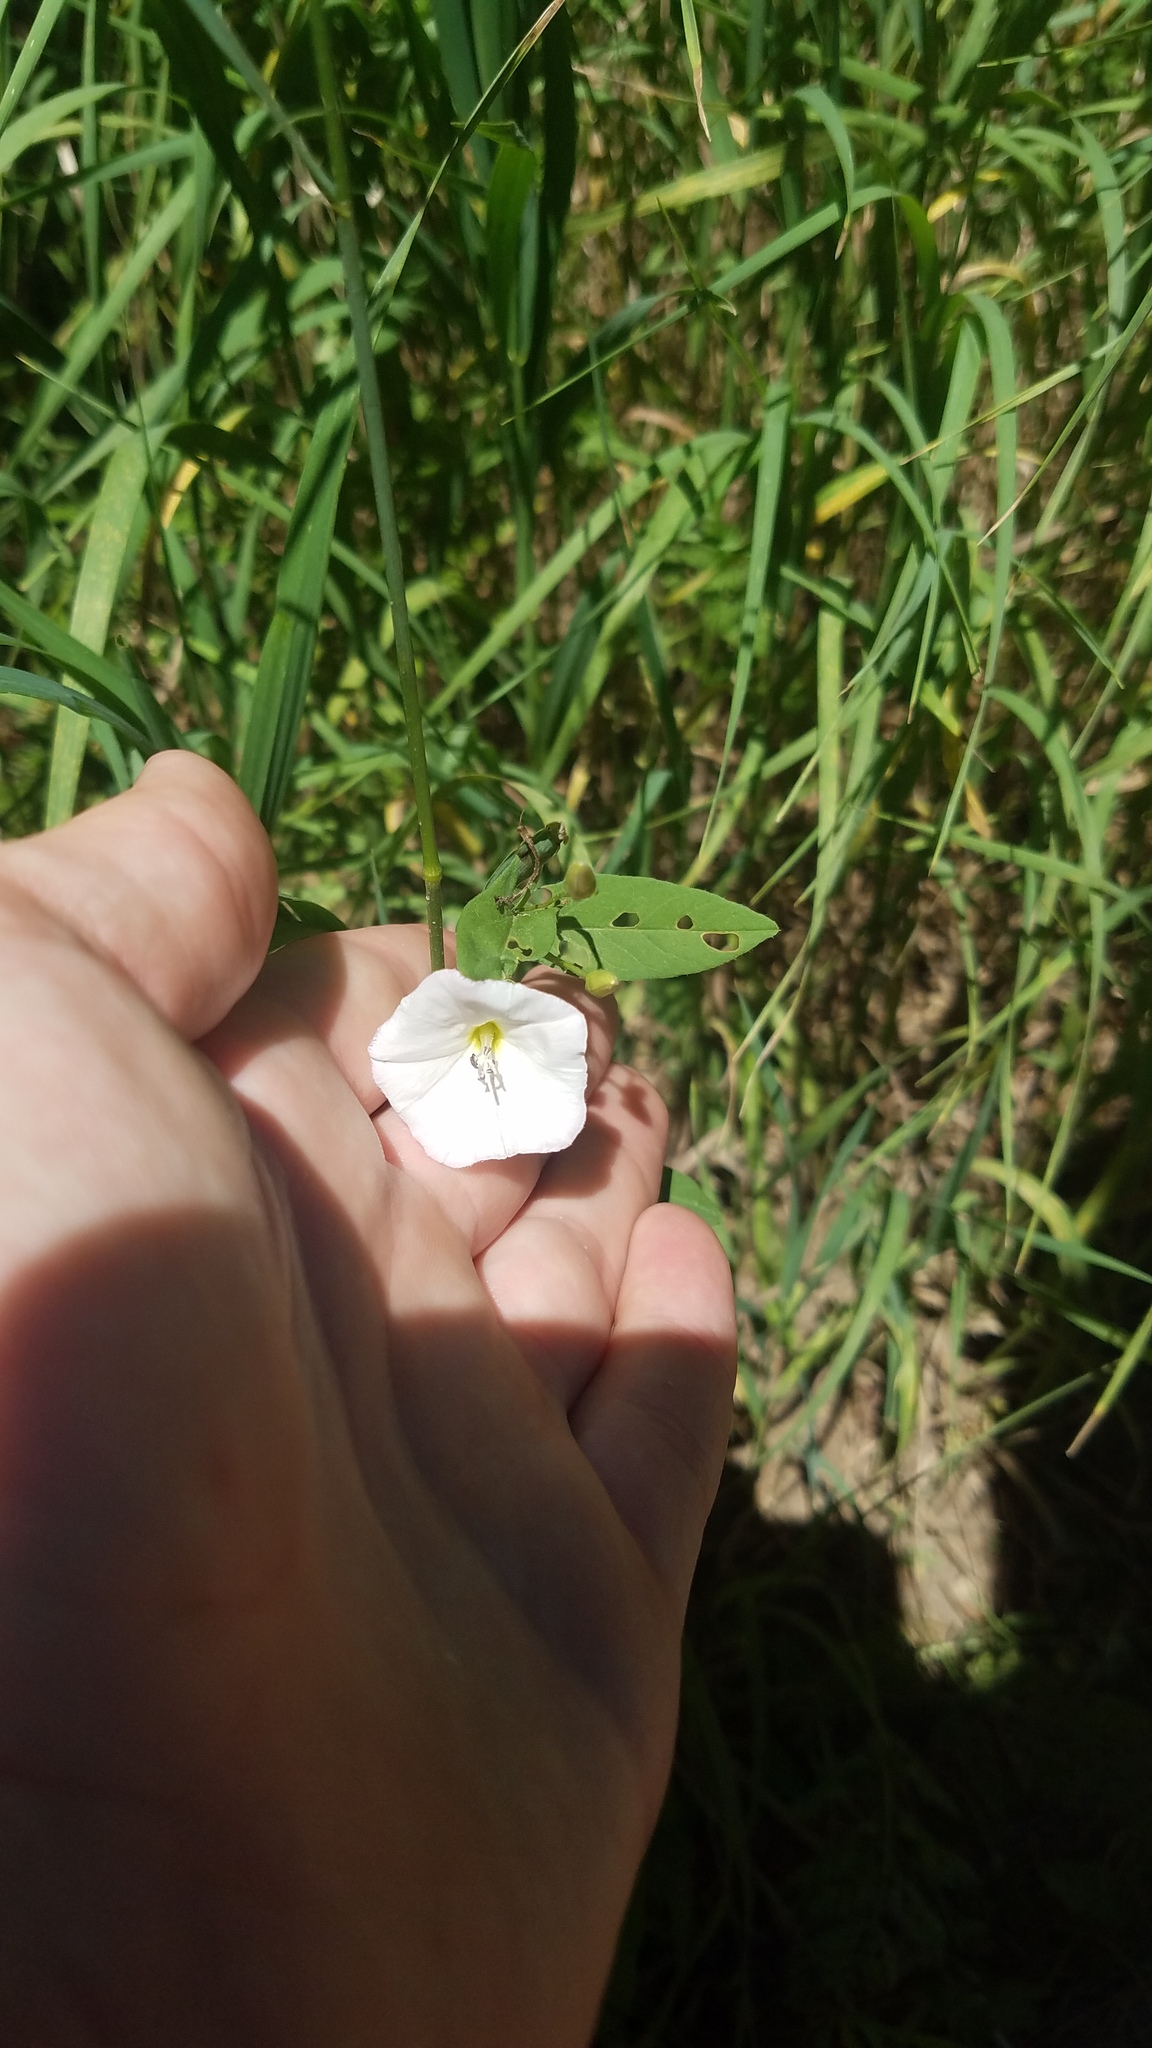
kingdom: Plantae
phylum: Tracheophyta
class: Magnoliopsida
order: Solanales
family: Convolvulaceae
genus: Convolvulus
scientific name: Convolvulus arvensis
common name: Field bindweed
